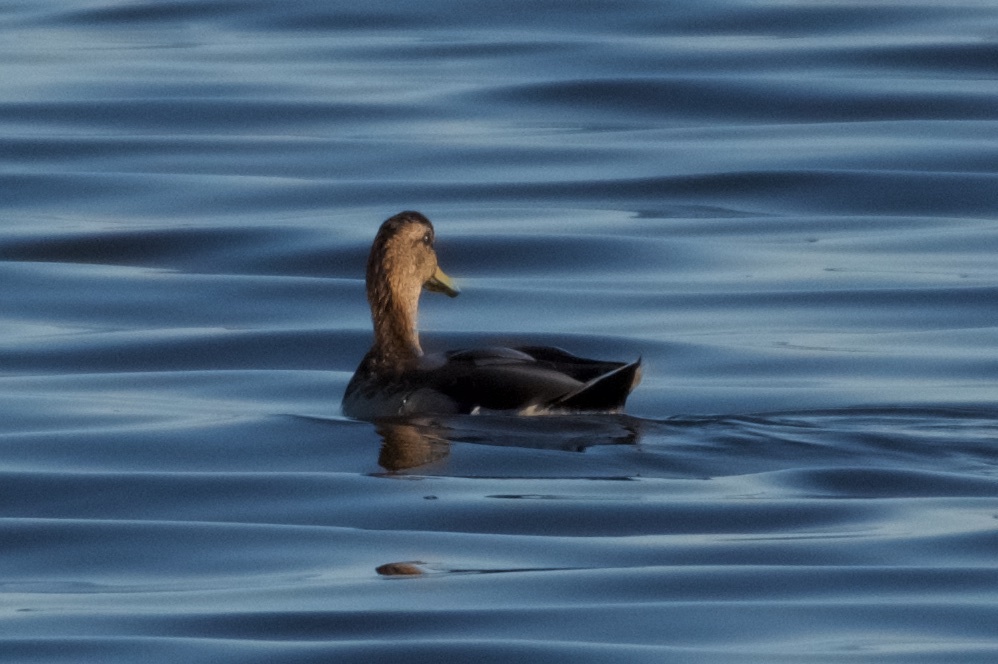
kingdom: Animalia
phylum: Chordata
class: Aves
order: Anseriformes
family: Anatidae
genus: Anas
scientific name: Anas platyrhynchos
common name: Mallard
